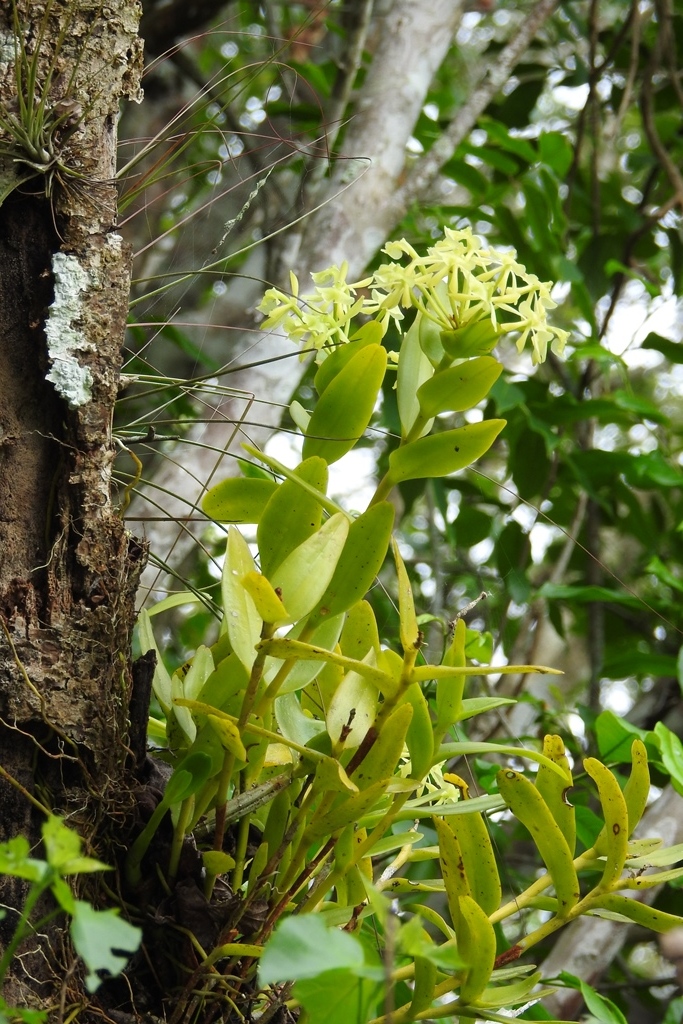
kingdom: Plantae
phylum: Tracheophyta
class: Liliopsida
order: Asparagales
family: Orchidaceae
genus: Epidendrum
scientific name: Epidendrum chlorocorymbos
